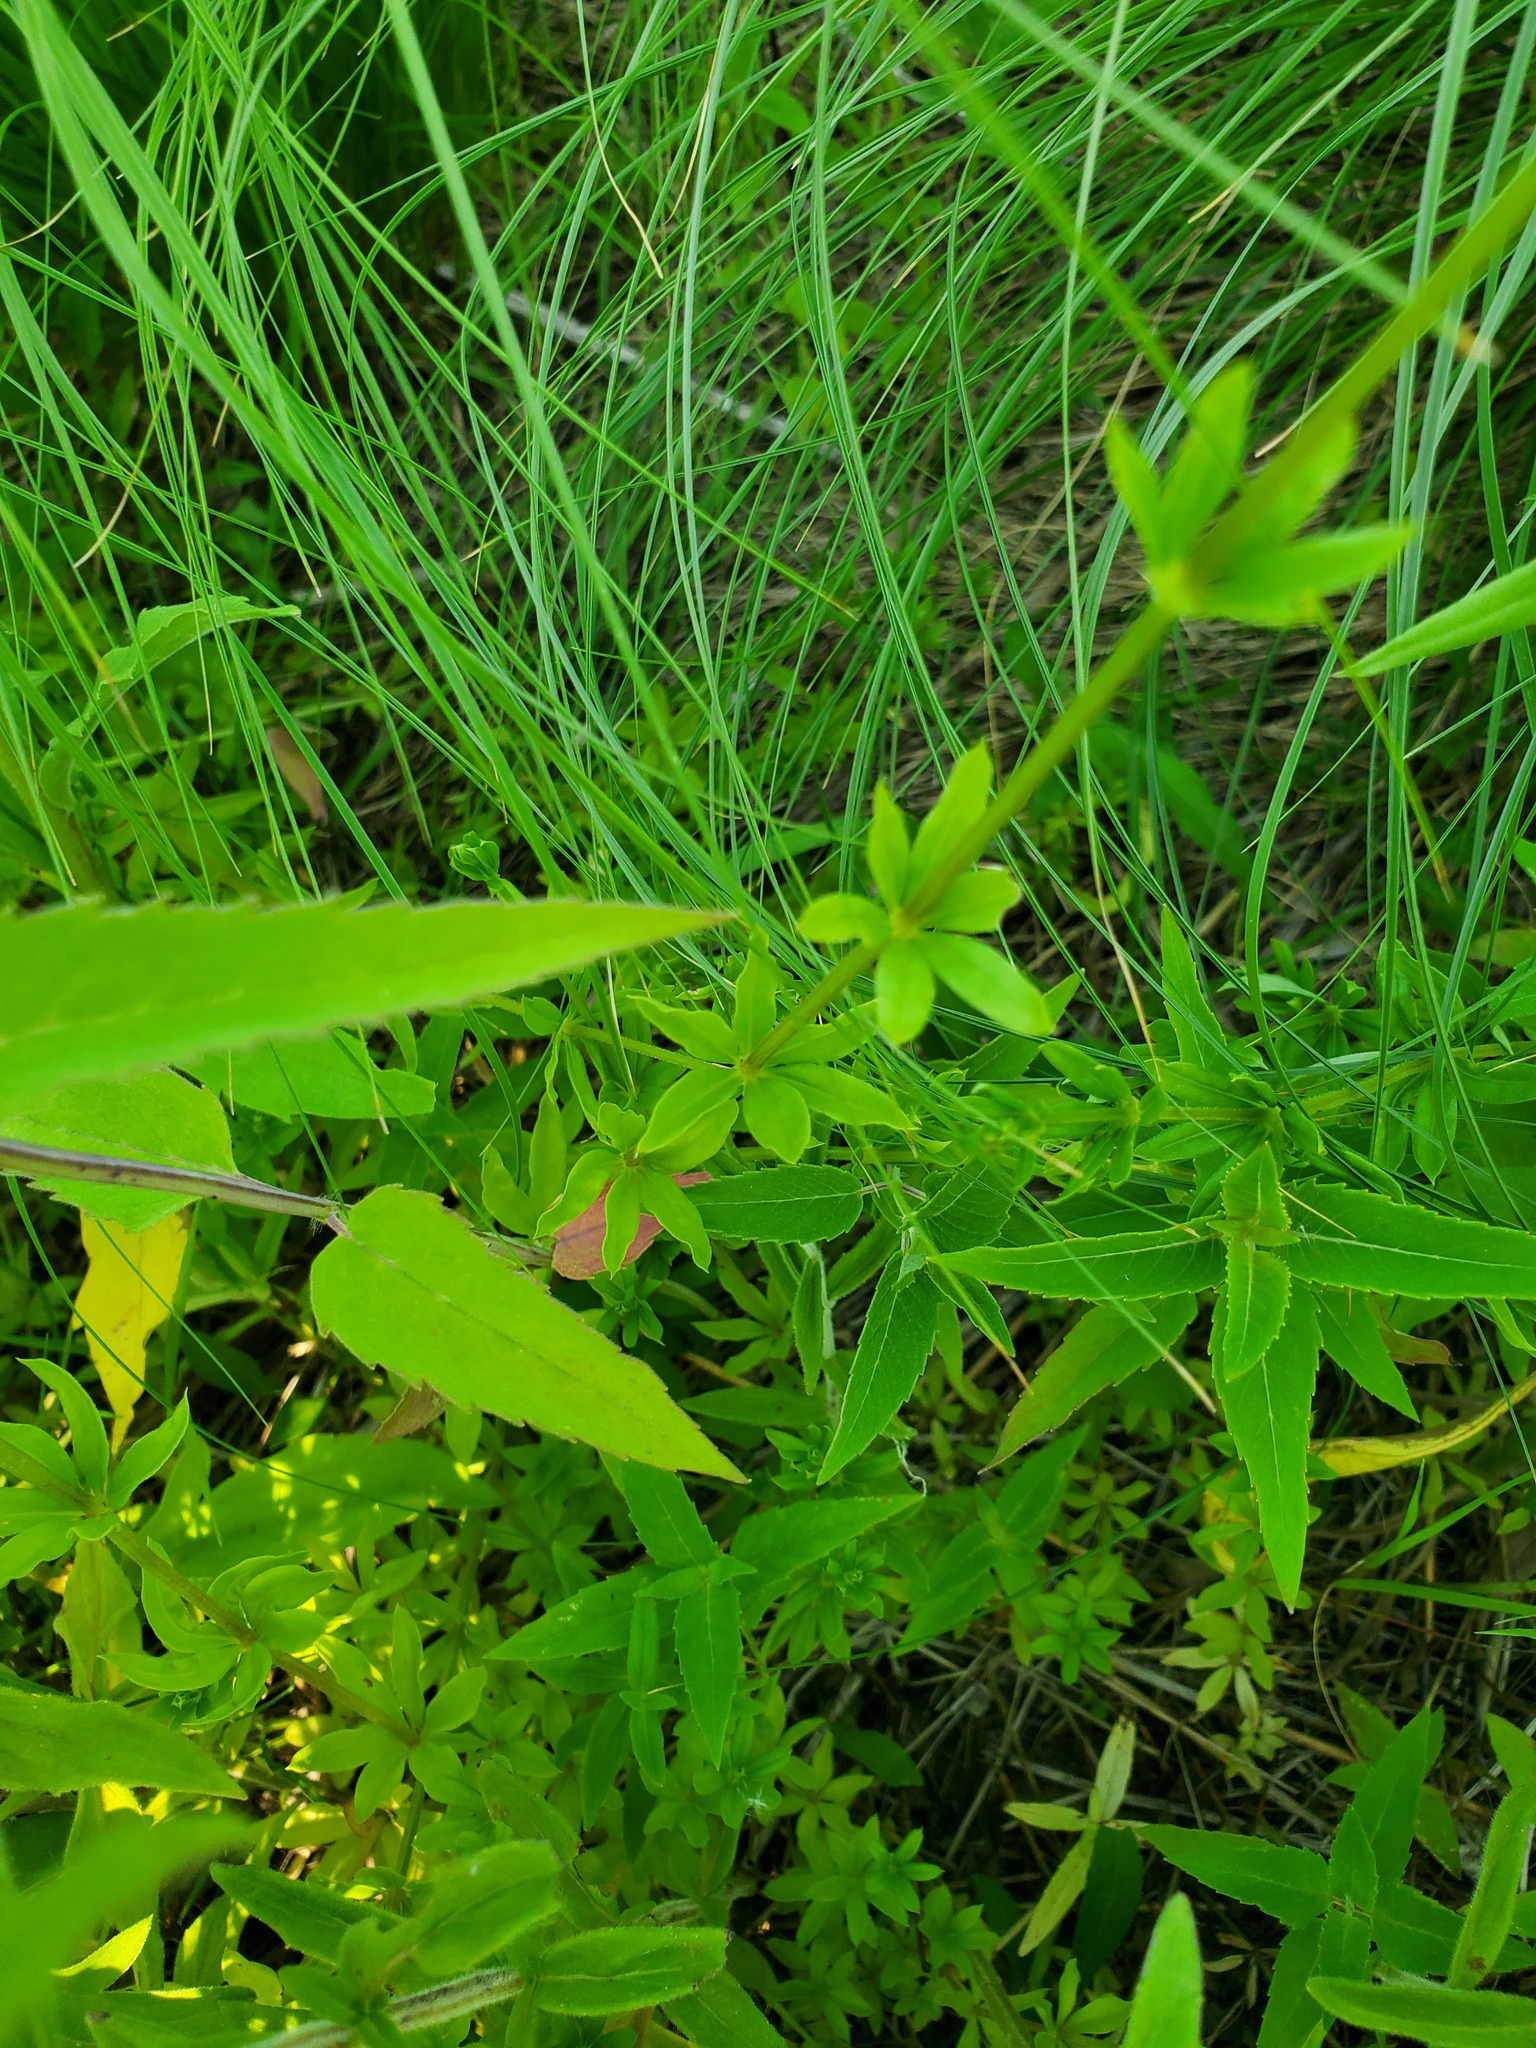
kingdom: Plantae
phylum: Tracheophyta
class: Magnoliopsida
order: Gentianales
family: Rubiaceae
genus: Galium
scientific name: Galium triflorum
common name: Fragrant bedstraw
